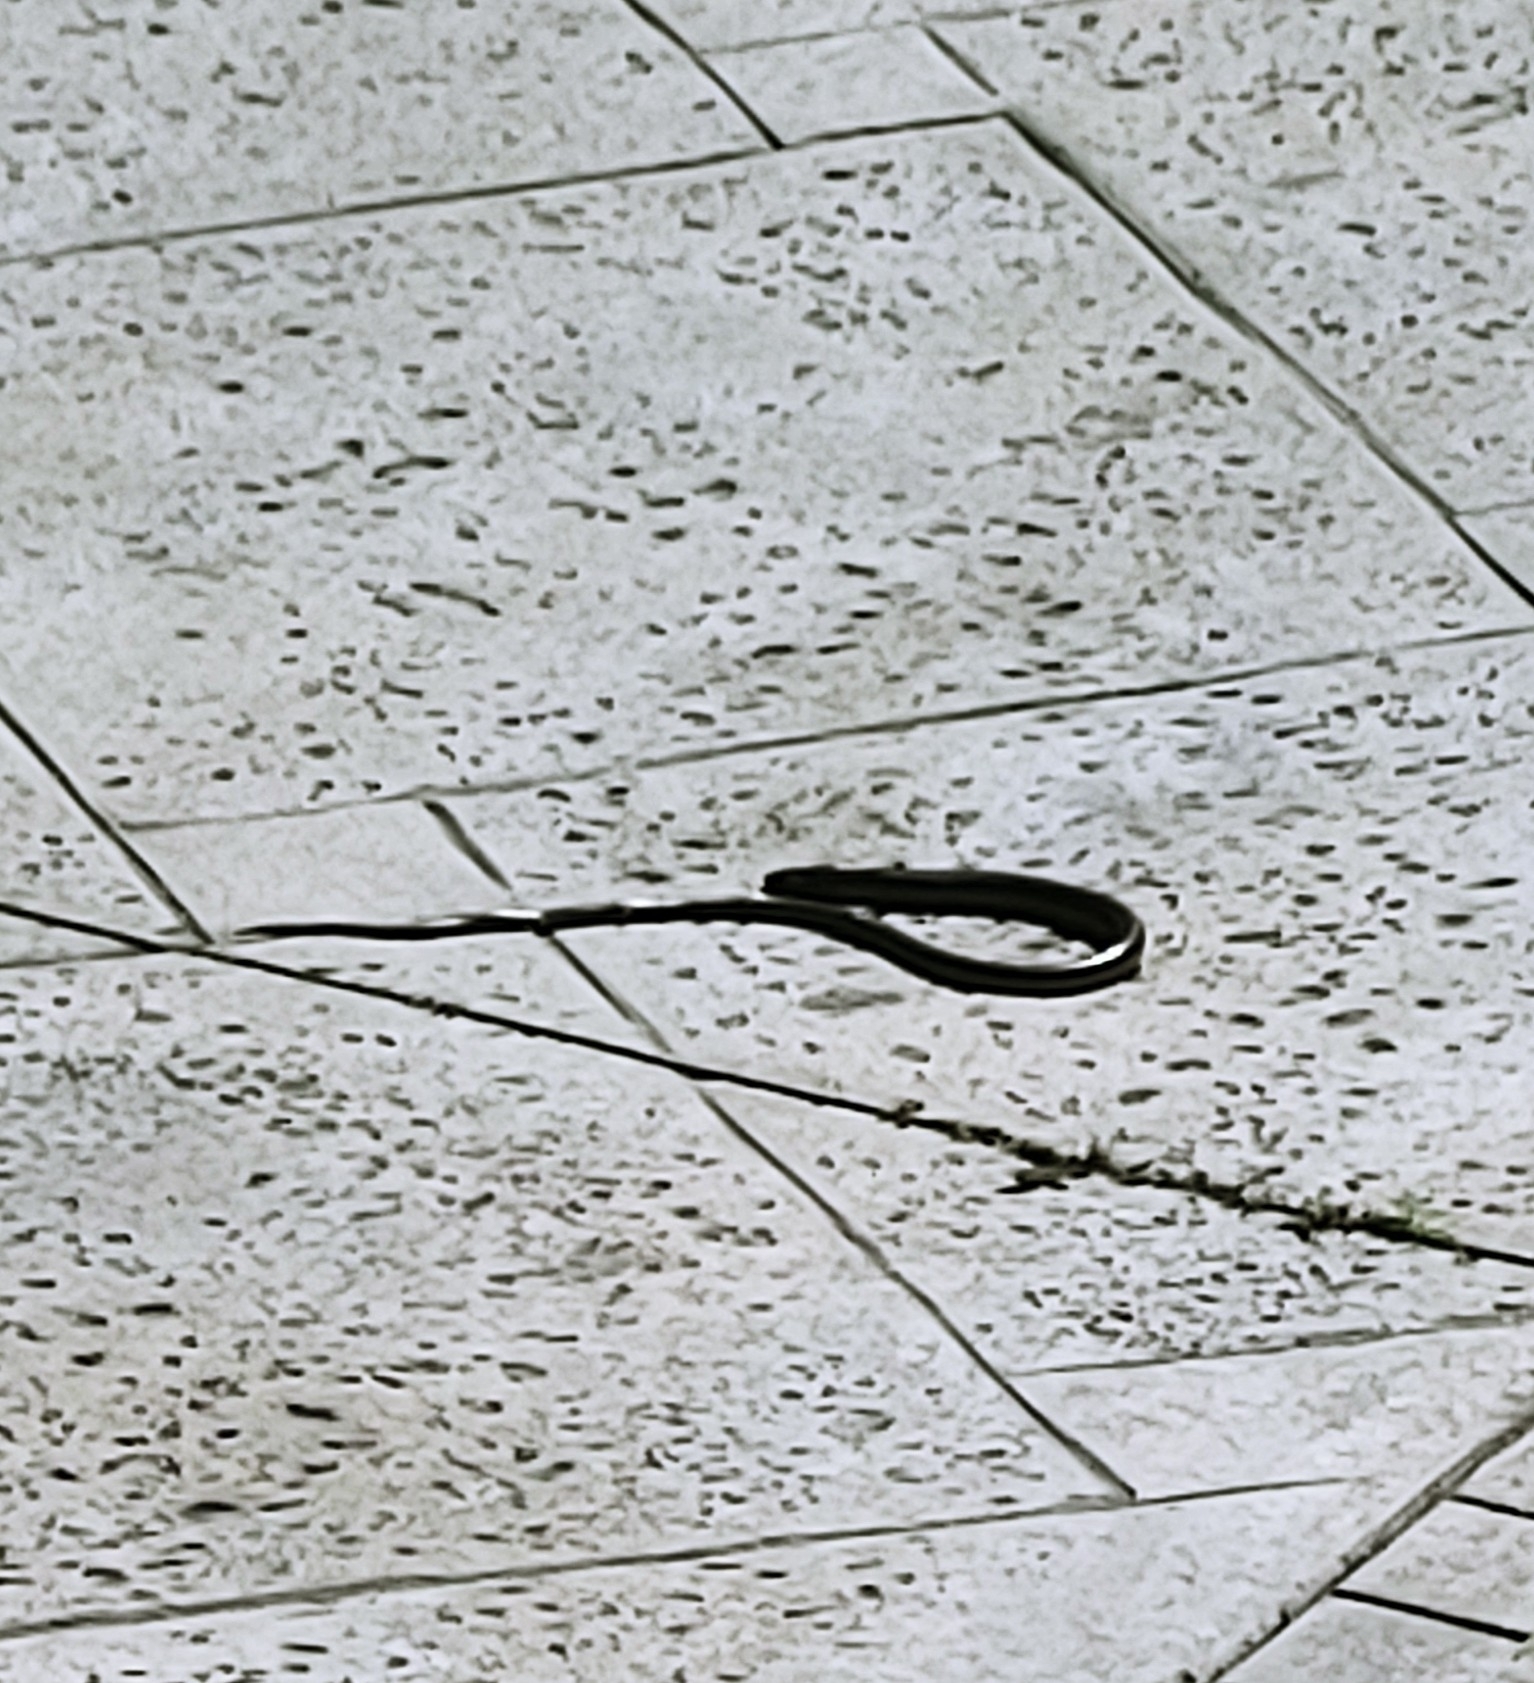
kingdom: Animalia
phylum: Chordata
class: Squamata
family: Anguidae
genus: Ophisaurus
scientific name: Ophisaurus ventralis
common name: Eastern glass lizard
